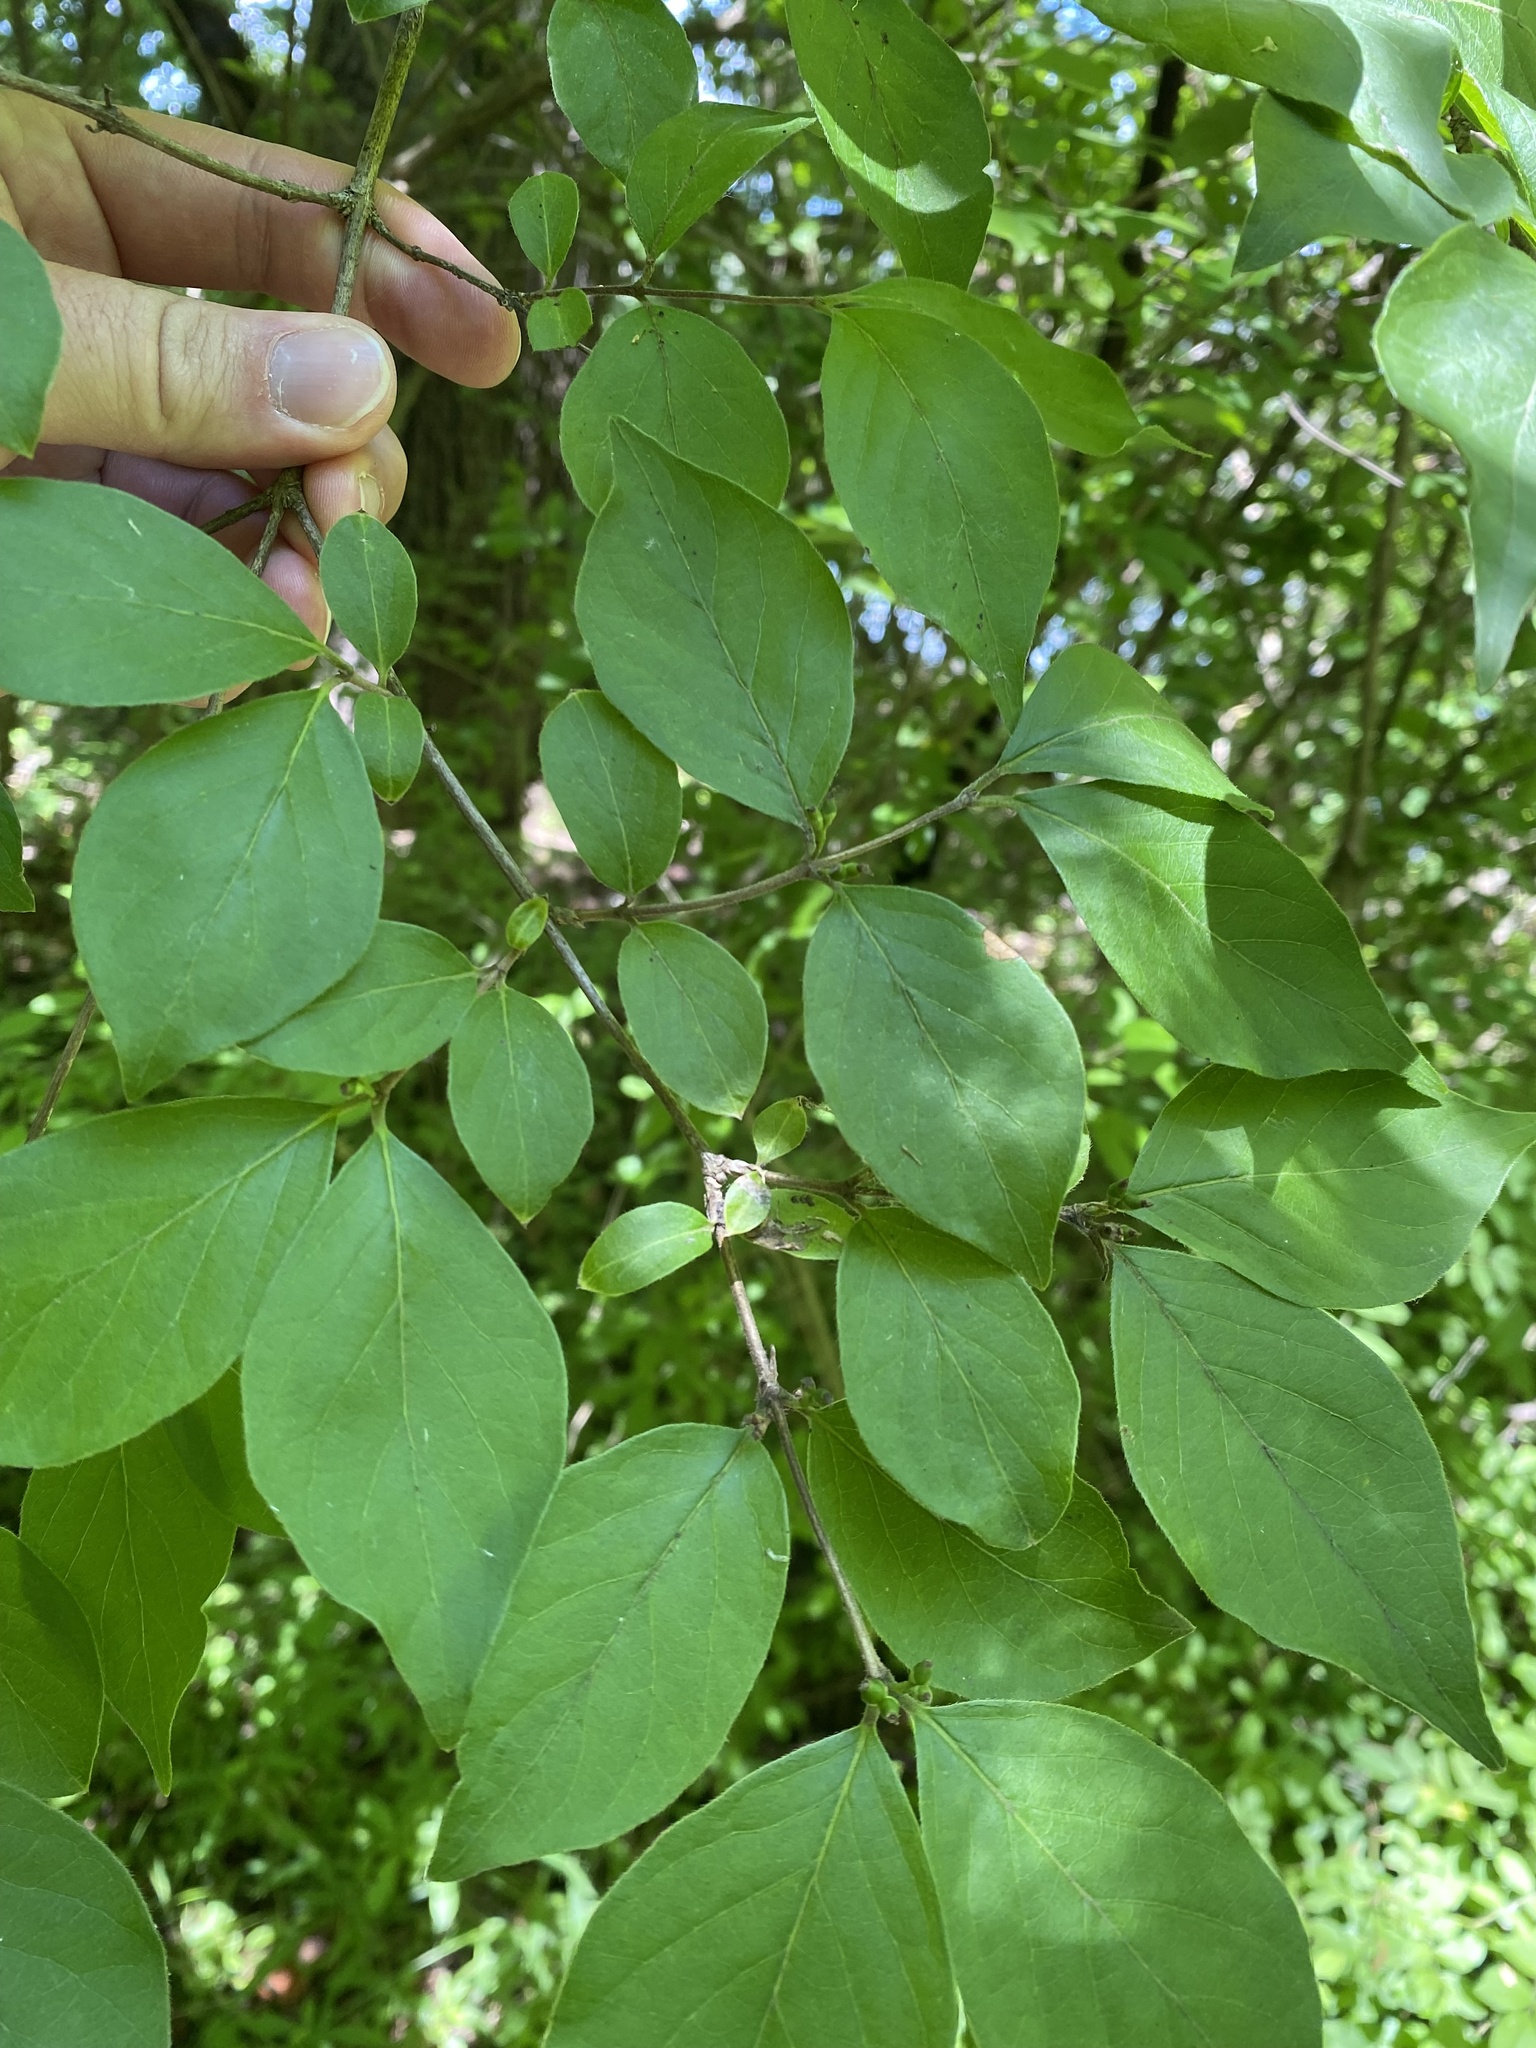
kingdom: Plantae
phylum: Tracheophyta
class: Magnoliopsida
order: Dipsacales
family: Caprifoliaceae
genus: Lonicera
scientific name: Lonicera maackii
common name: Amur honeysuckle
